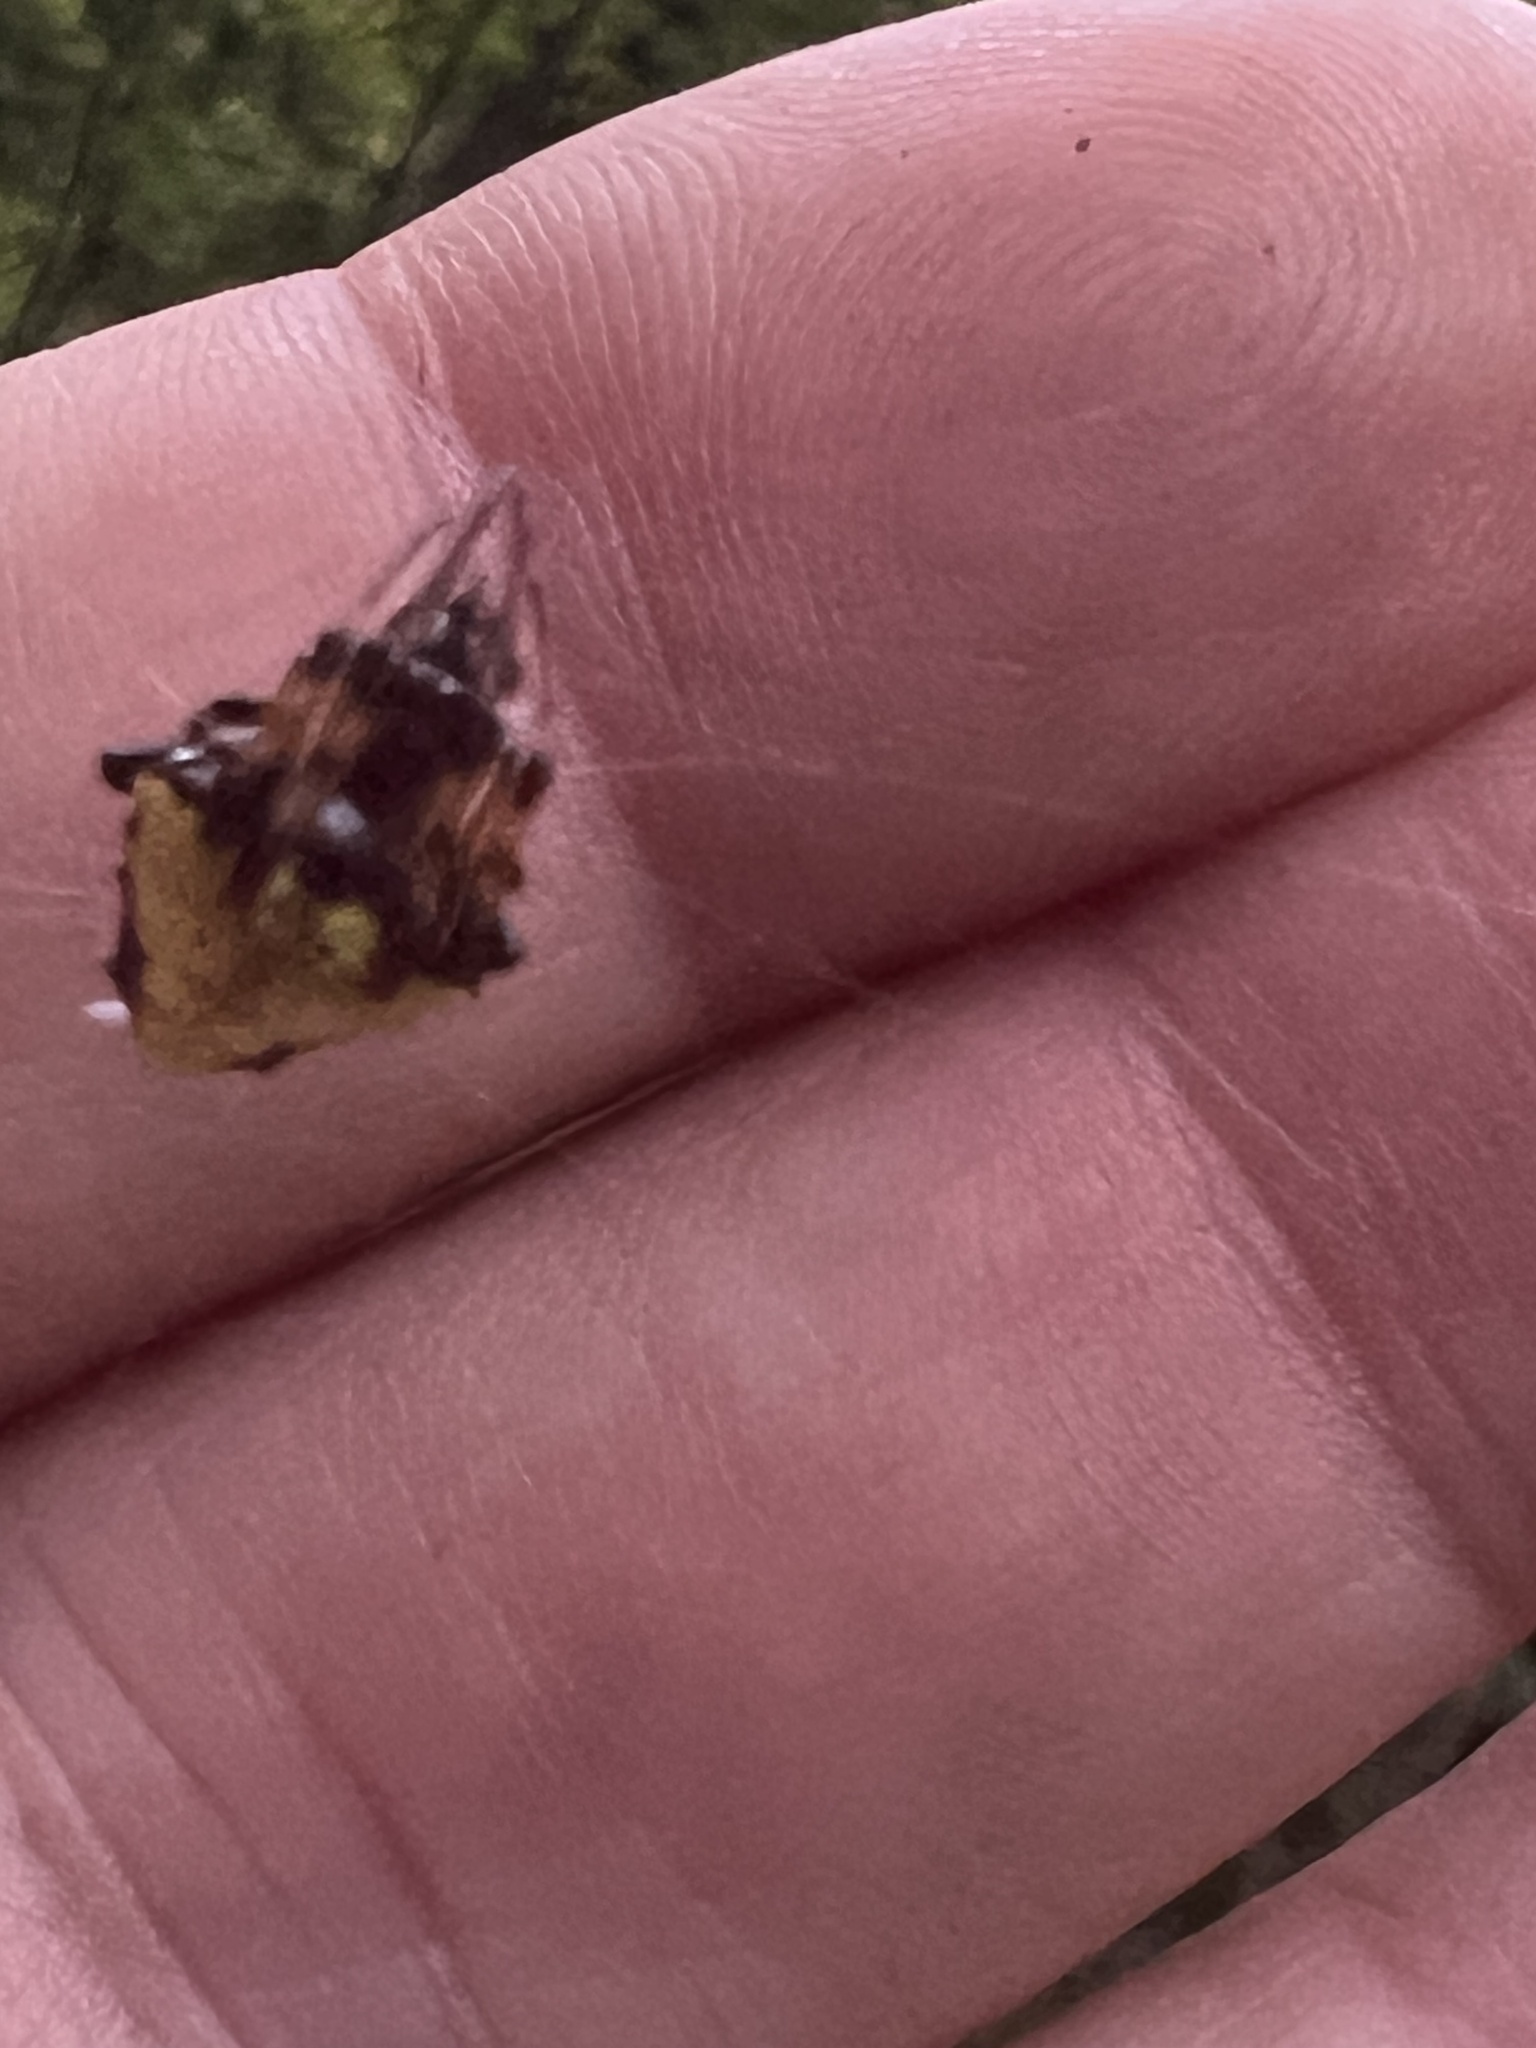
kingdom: Animalia
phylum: Arthropoda
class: Arachnida
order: Araneae
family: Araneidae
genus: Verrucosa
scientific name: Verrucosa arenata
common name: Orb weavers
